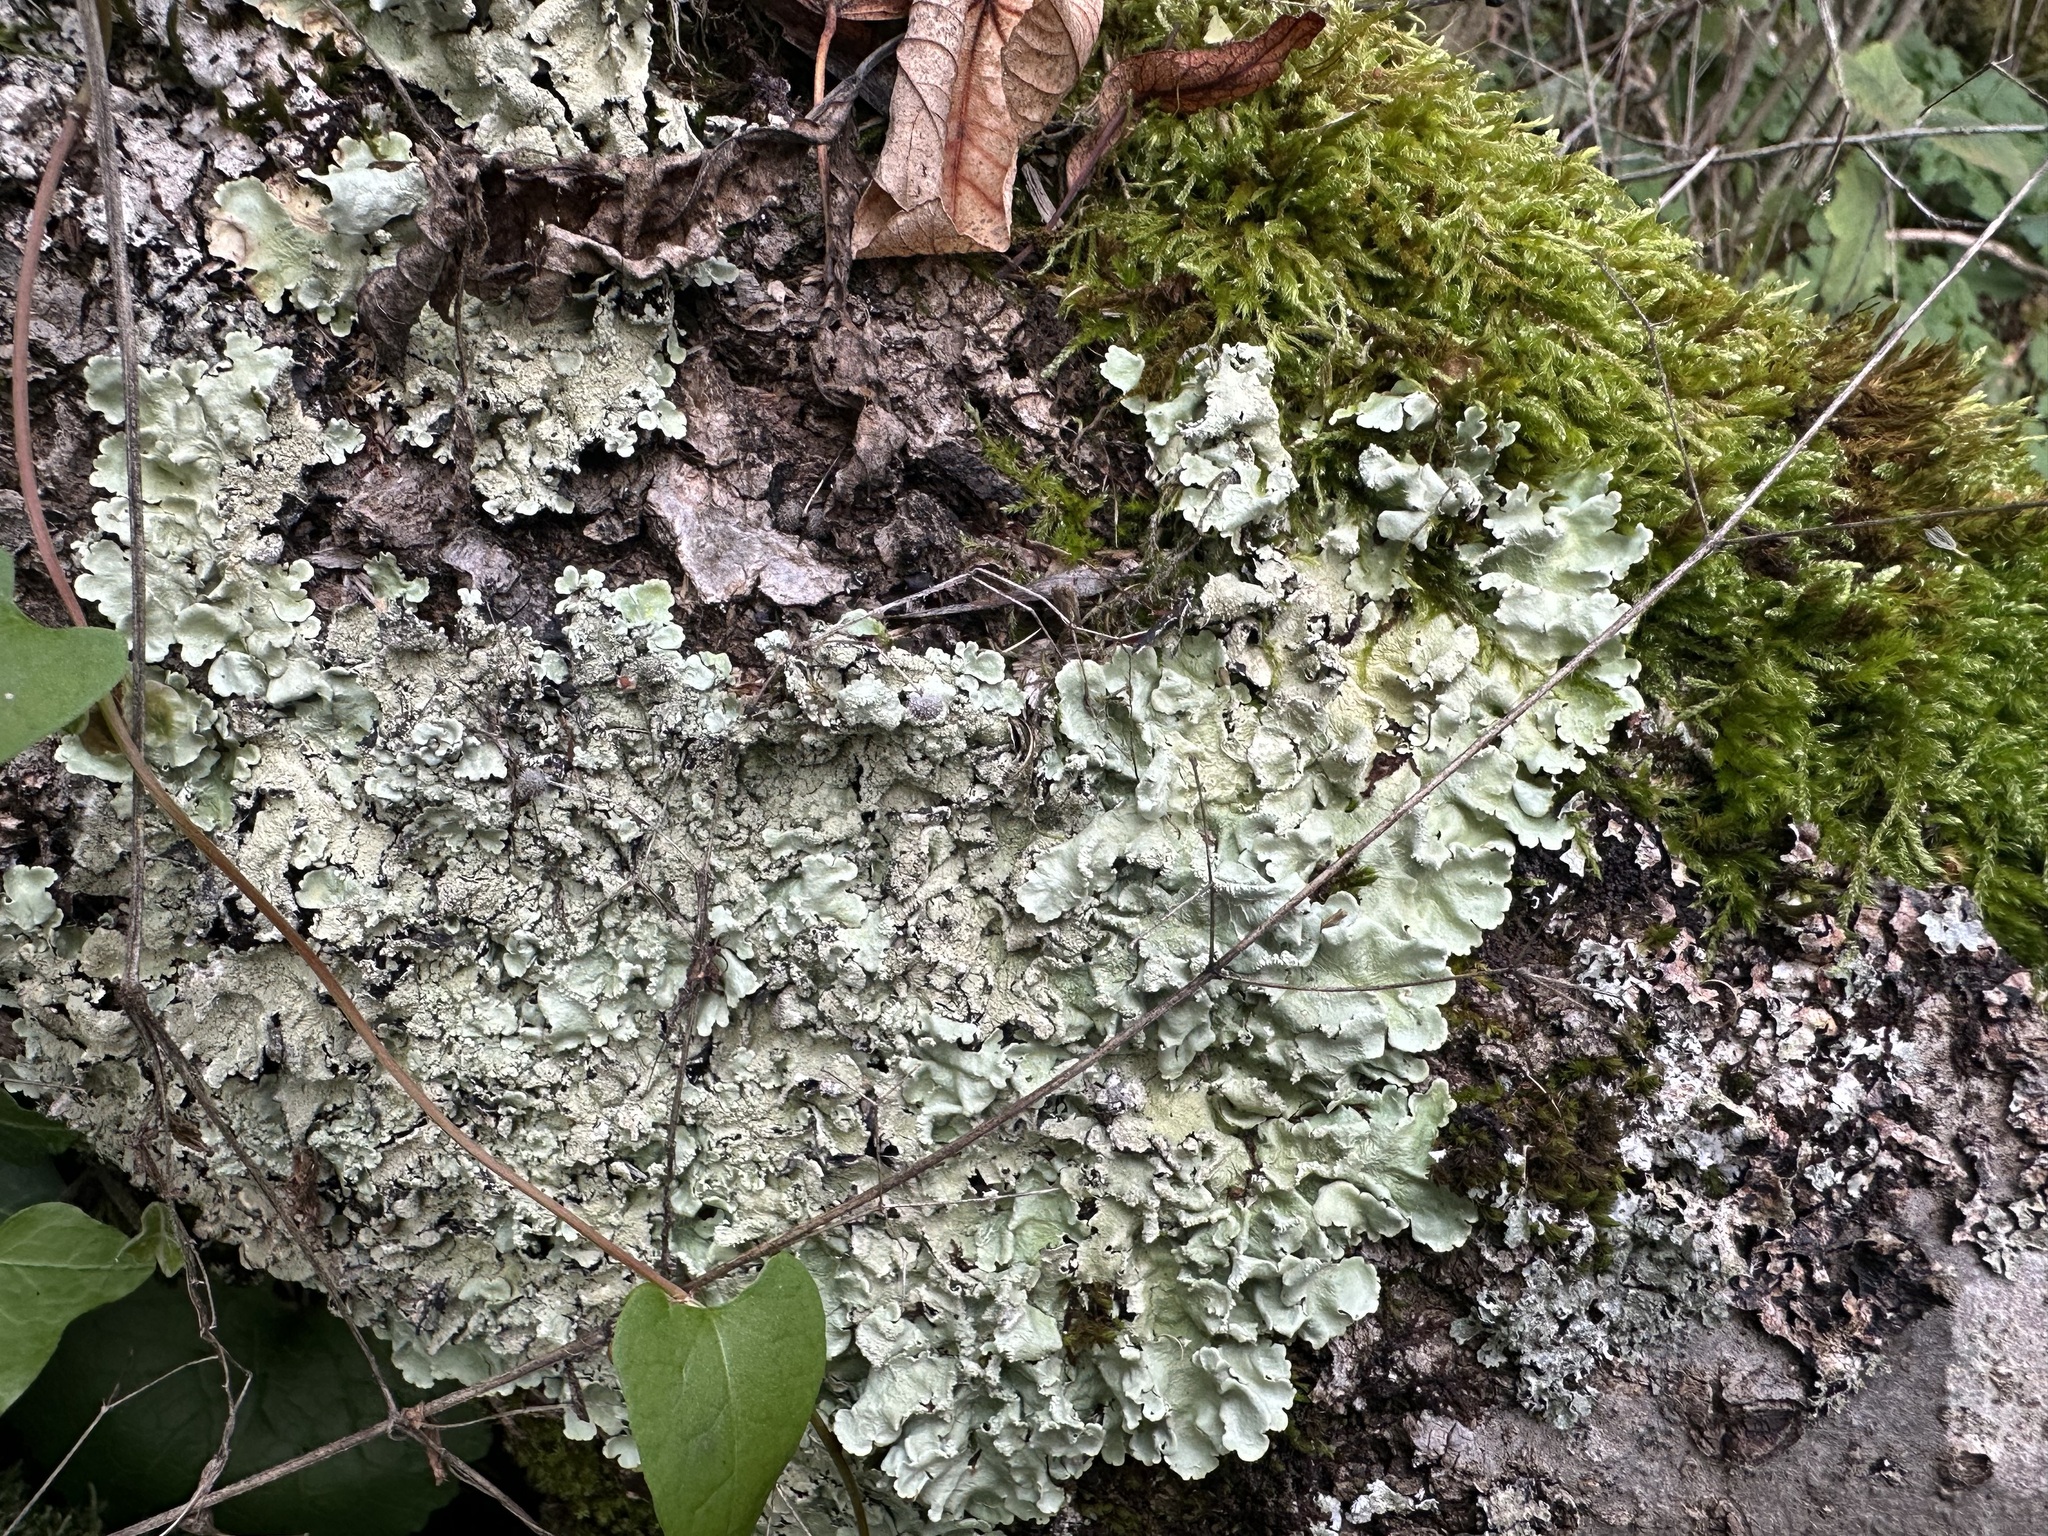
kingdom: Fungi
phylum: Ascomycota
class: Lecanoromycetes
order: Lecanorales
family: Parmeliaceae
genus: Flavoparmelia
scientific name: Flavoparmelia caperata
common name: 40-mile per hour lichen
